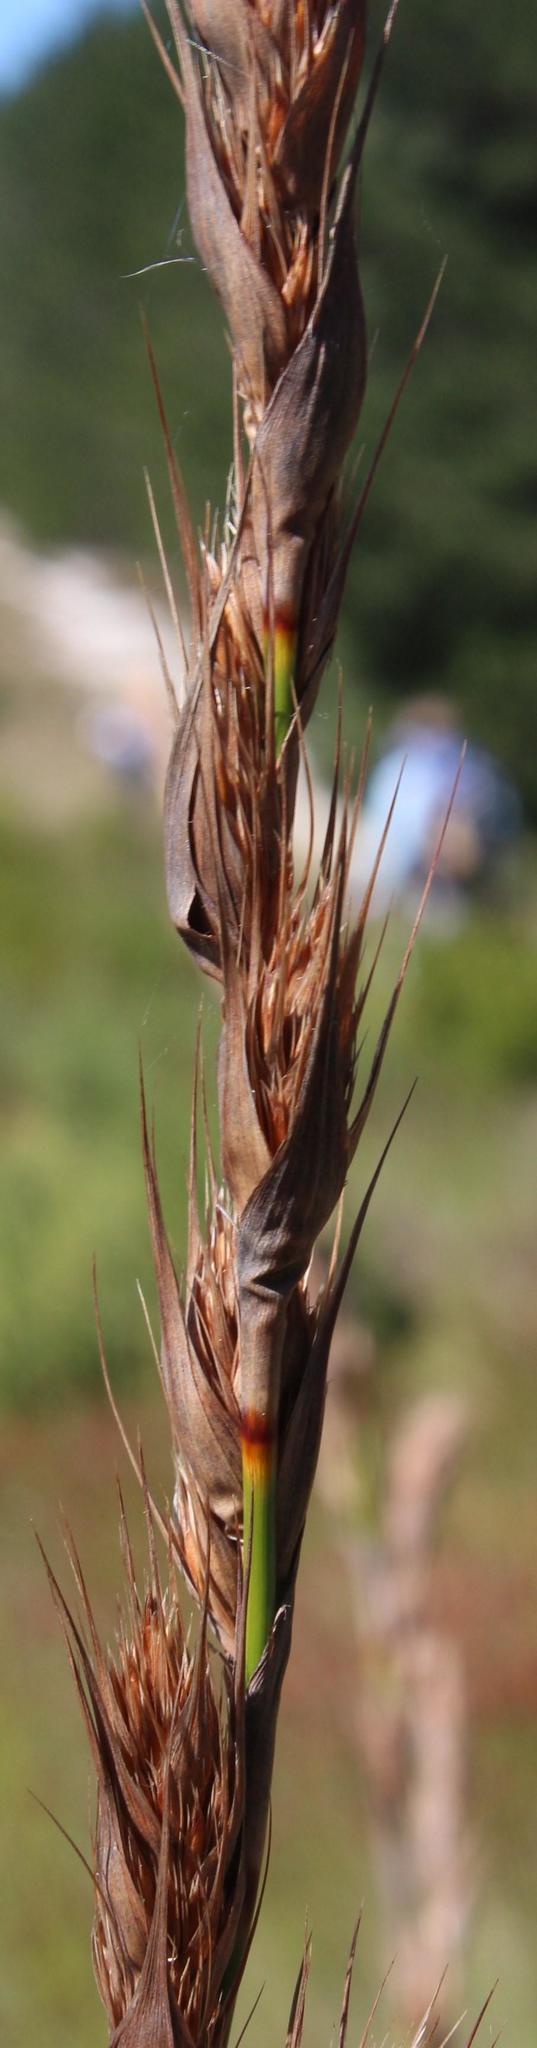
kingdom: Plantae
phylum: Tracheophyta
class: Liliopsida
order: Poales
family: Cyperaceae
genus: Tetraria
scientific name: Tetraria bromoides
